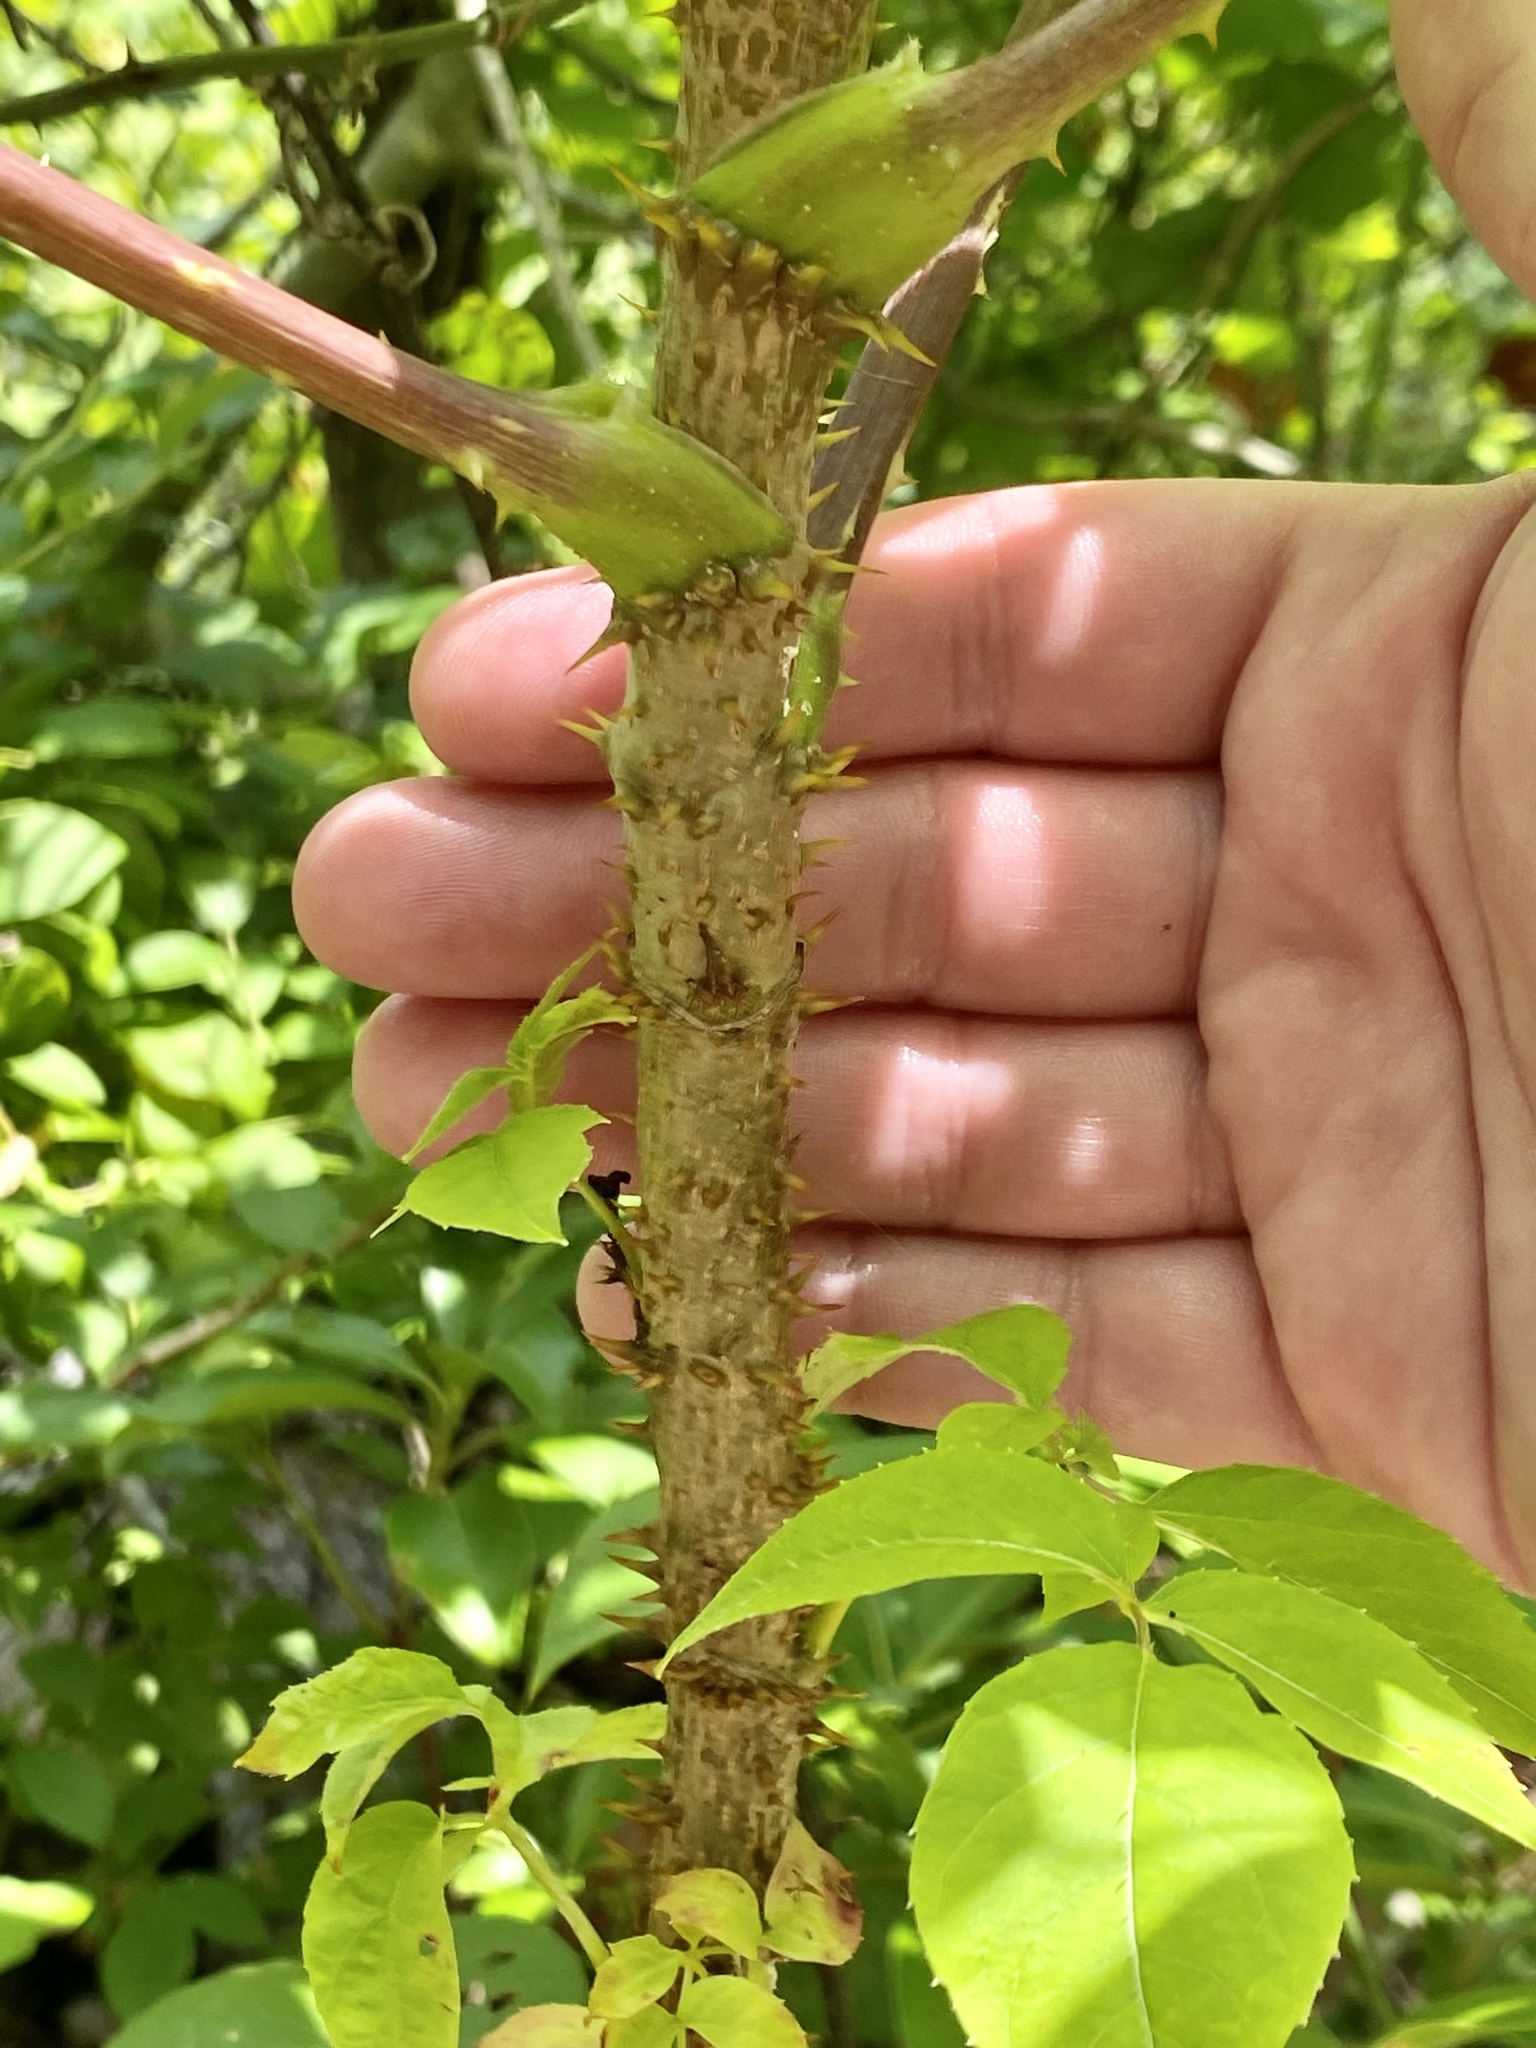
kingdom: Plantae
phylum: Tracheophyta
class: Magnoliopsida
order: Apiales
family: Araliaceae
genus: Aralia
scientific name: Aralia spinosa
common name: Hercules'-club
